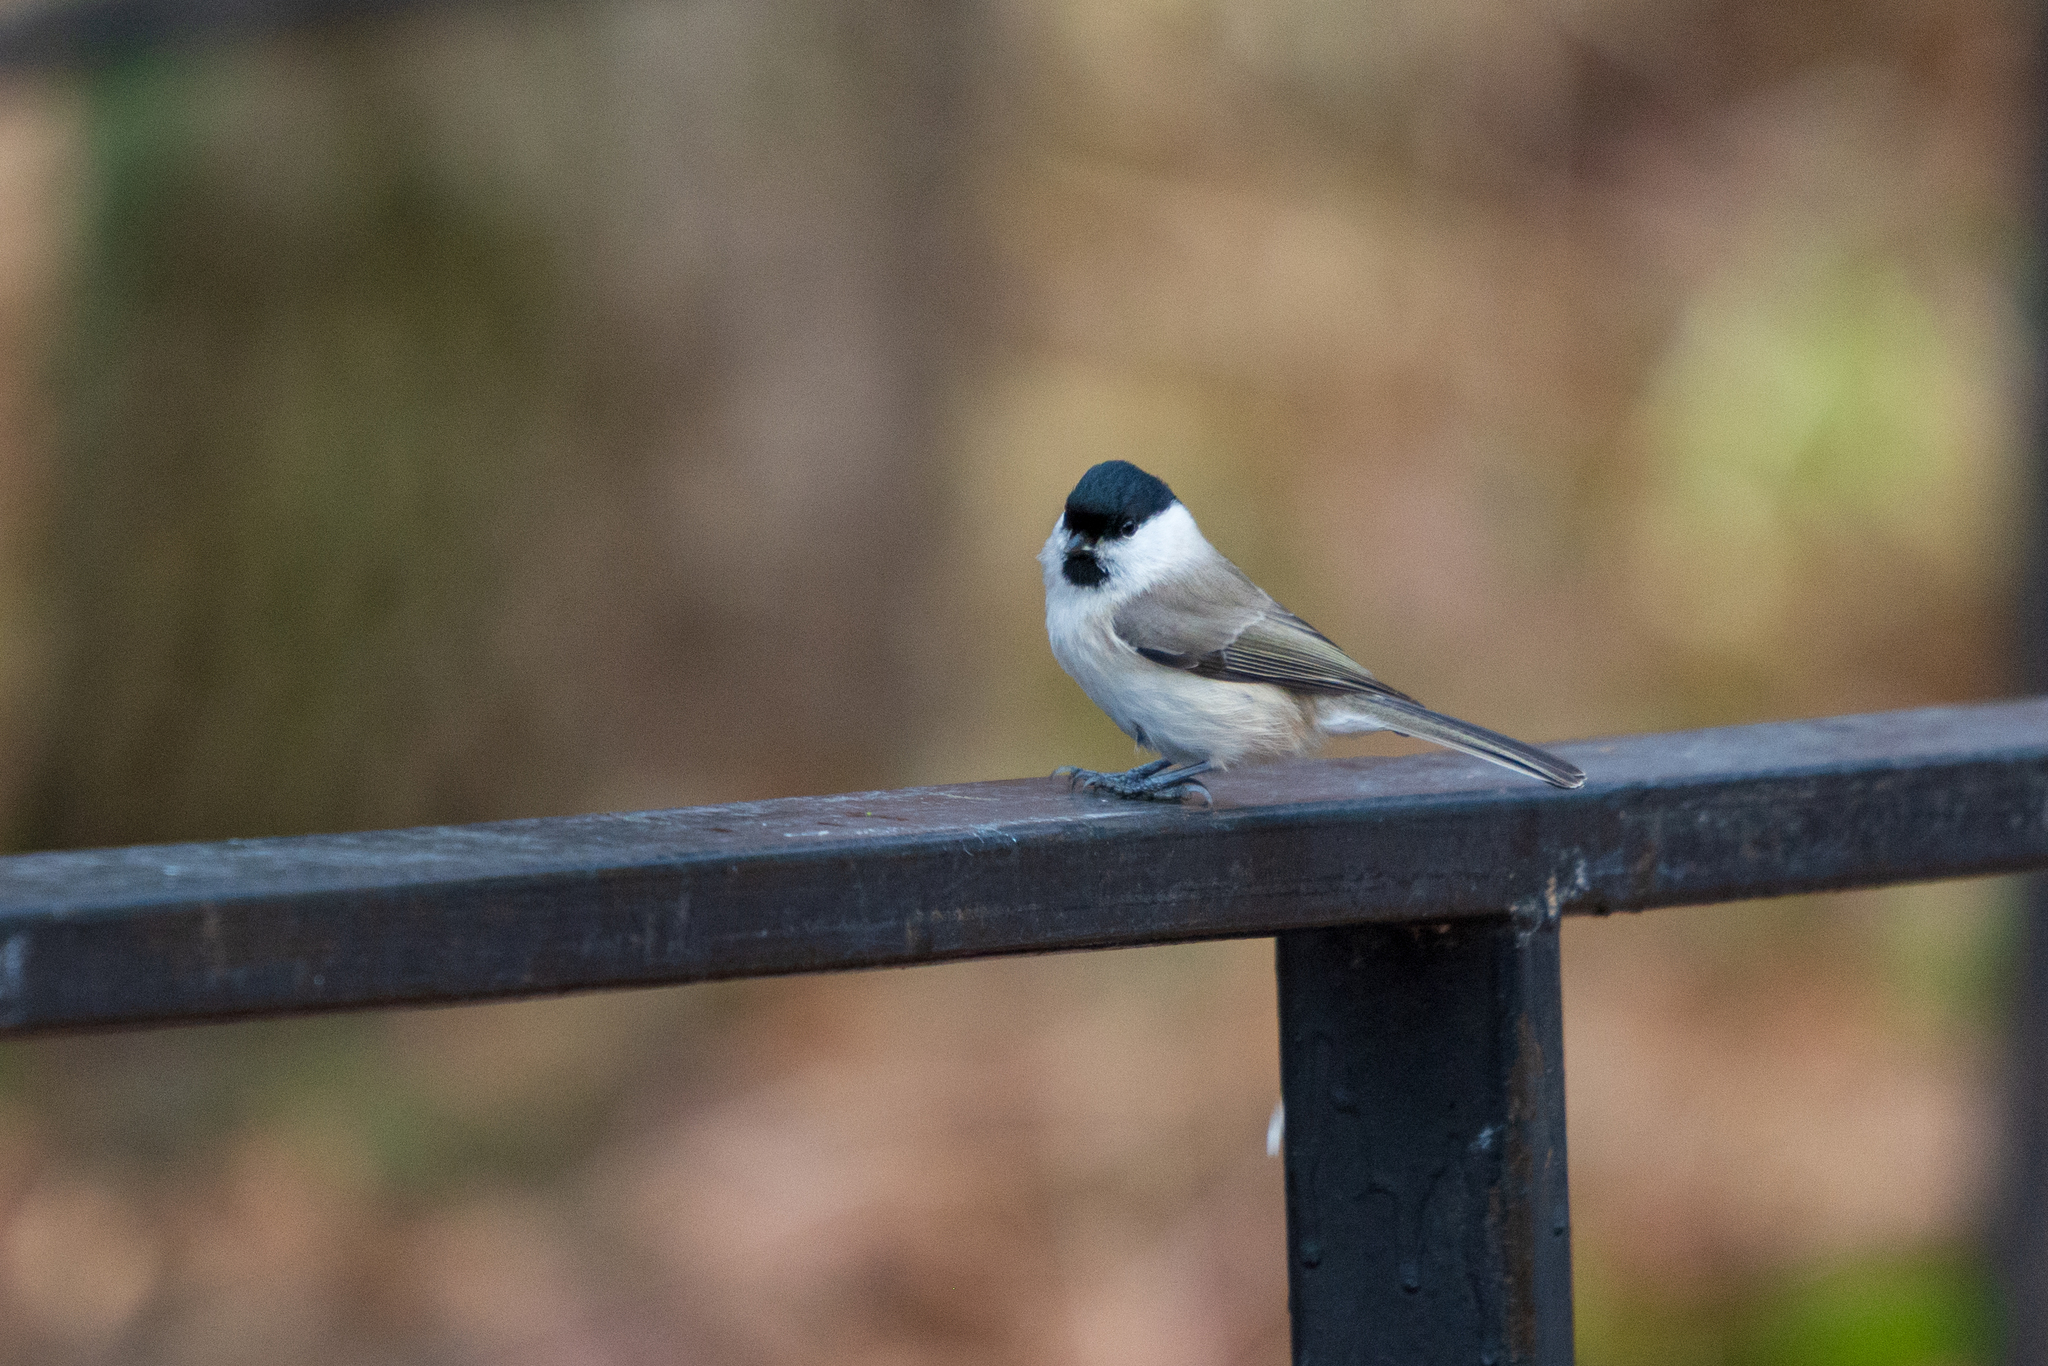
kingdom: Animalia
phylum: Chordata
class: Aves
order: Passeriformes
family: Paridae
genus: Poecile
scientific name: Poecile palustris
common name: Marsh tit
